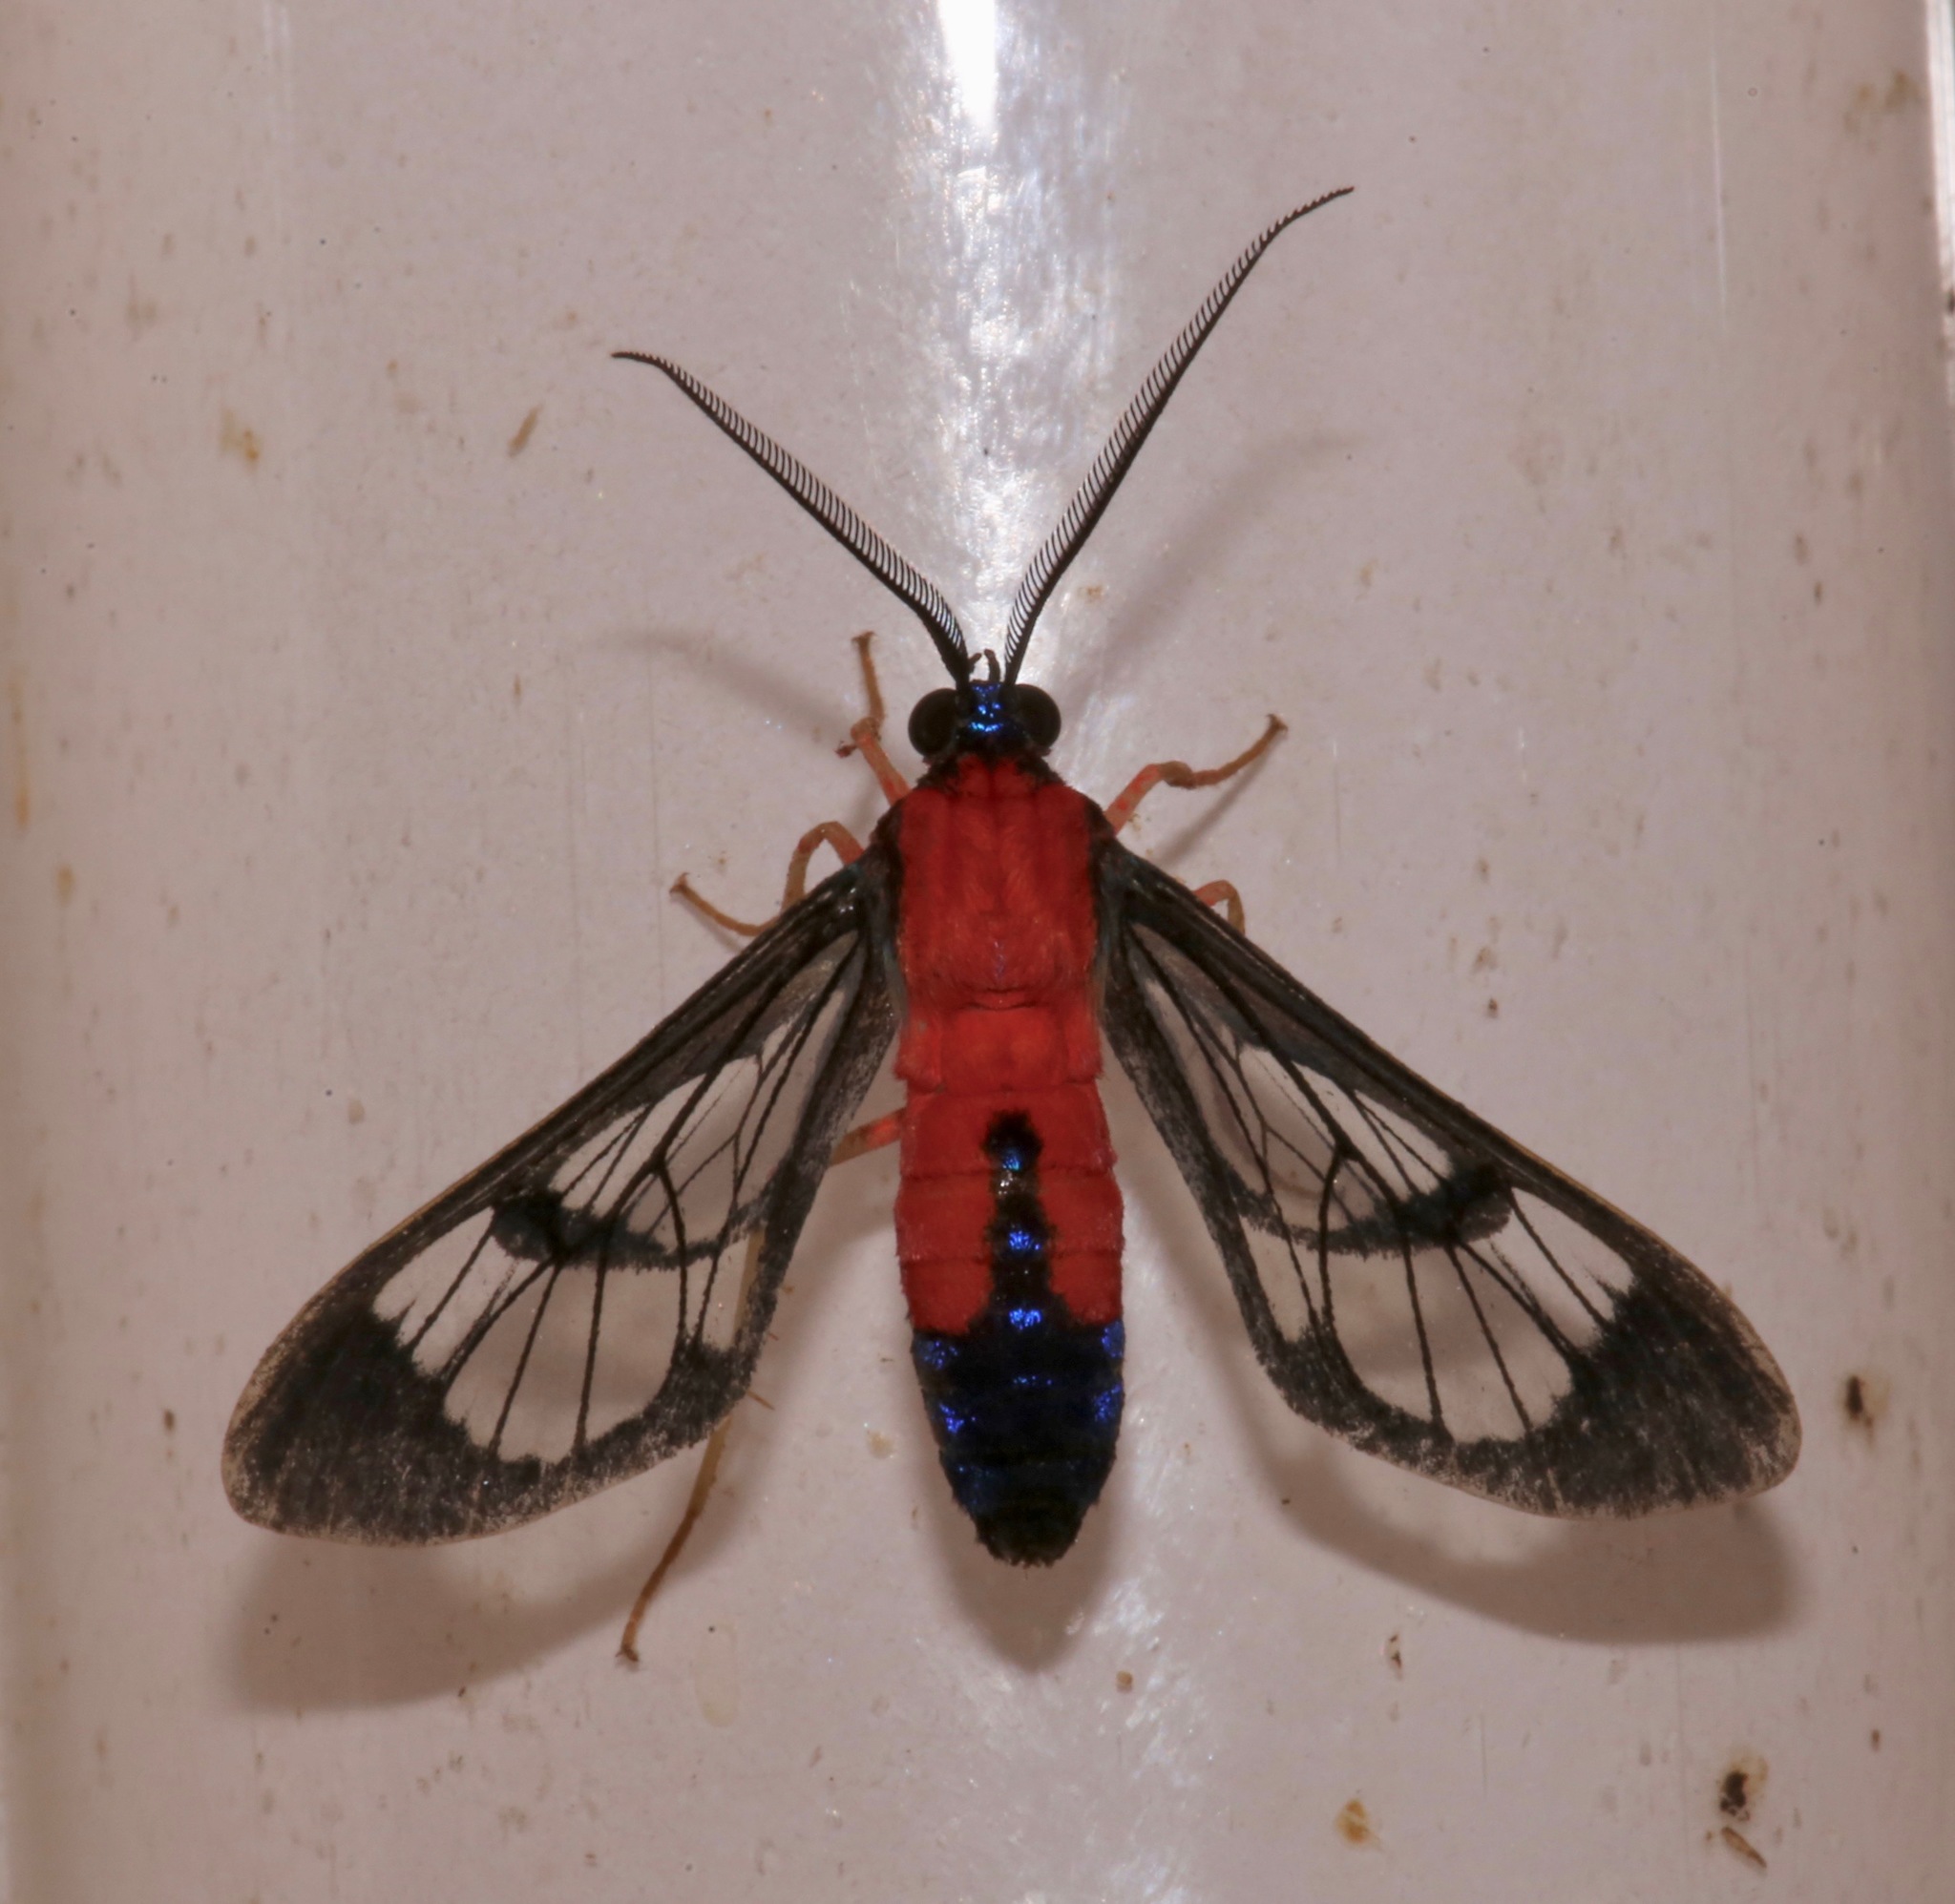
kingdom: Animalia
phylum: Arthropoda
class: Insecta
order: Lepidoptera
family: Erebidae
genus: Cosmosoma
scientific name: Cosmosoma myrodora
